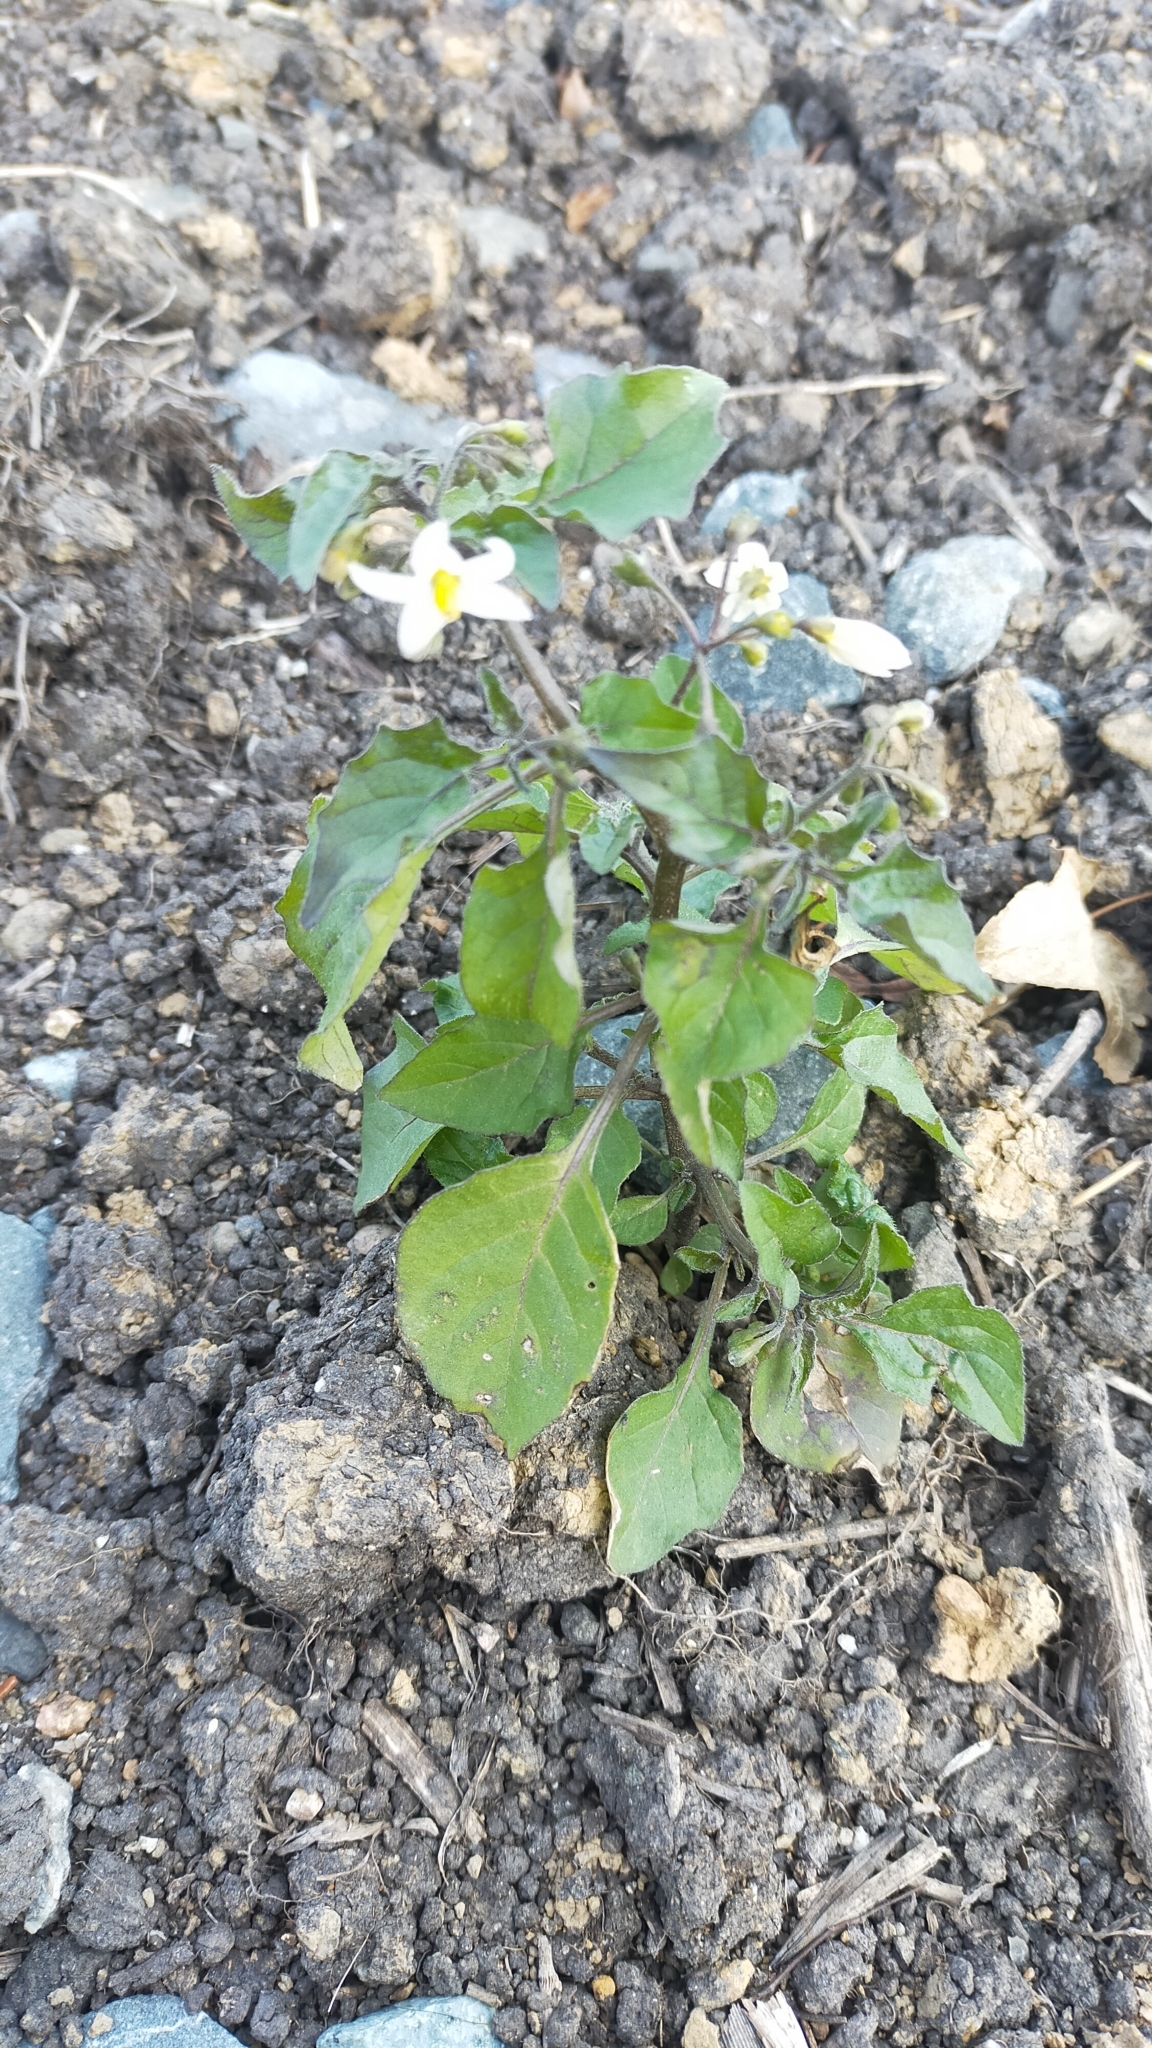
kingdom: Plantae
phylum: Tracheophyta
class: Magnoliopsida
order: Solanales
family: Solanaceae
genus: Solanum
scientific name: Solanum nigrum
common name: Black nightshade
